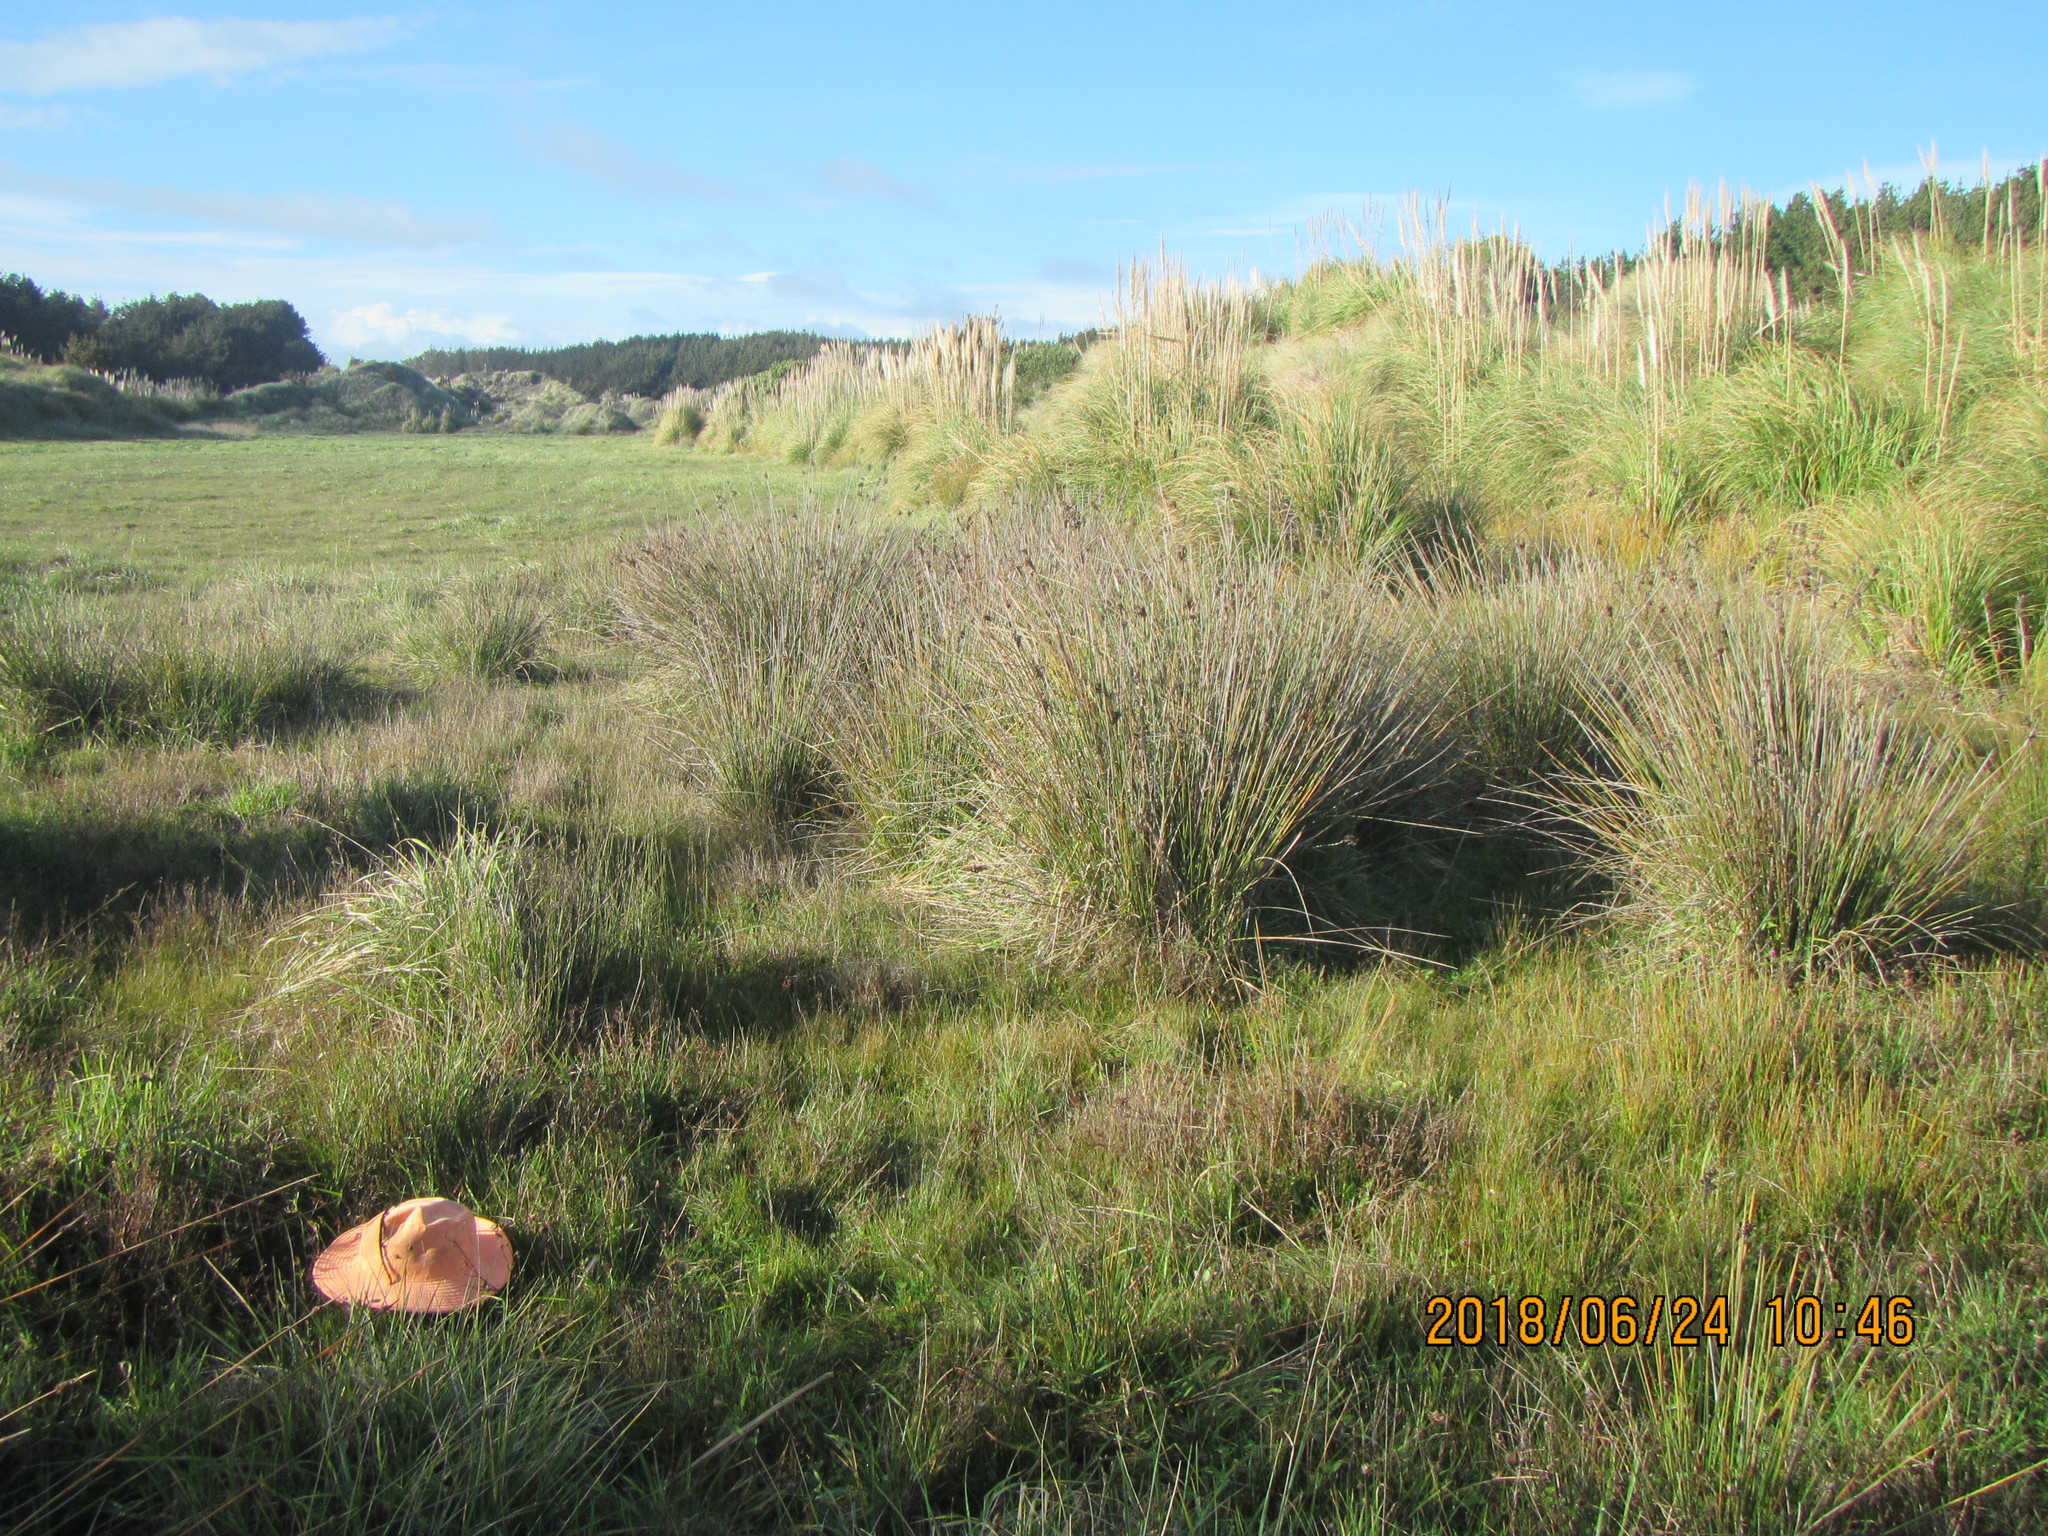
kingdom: Plantae
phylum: Tracheophyta
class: Liliopsida
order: Poales
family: Juncaceae
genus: Juncus
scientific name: Juncus kraussii
